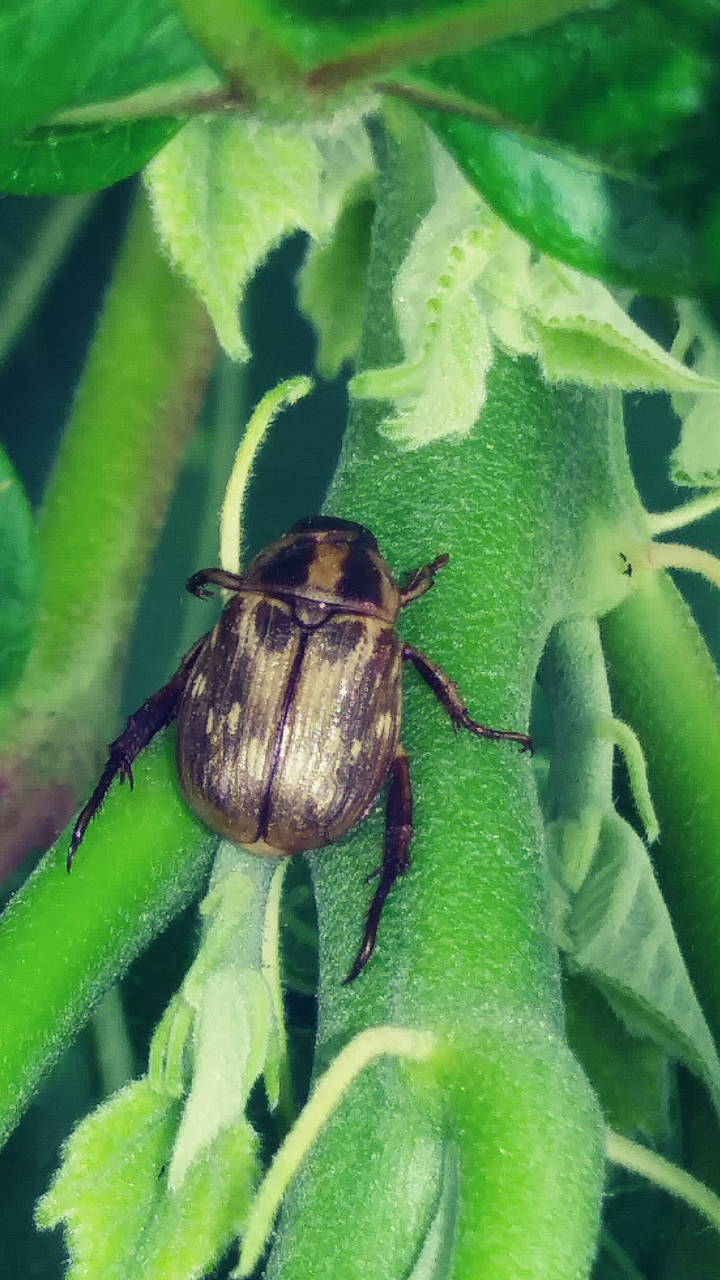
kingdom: Animalia
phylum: Arthropoda
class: Insecta
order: Coleoptera
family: Scarabaeidae
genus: Exomala
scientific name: Exomala orientalis
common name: Oriental beetle
